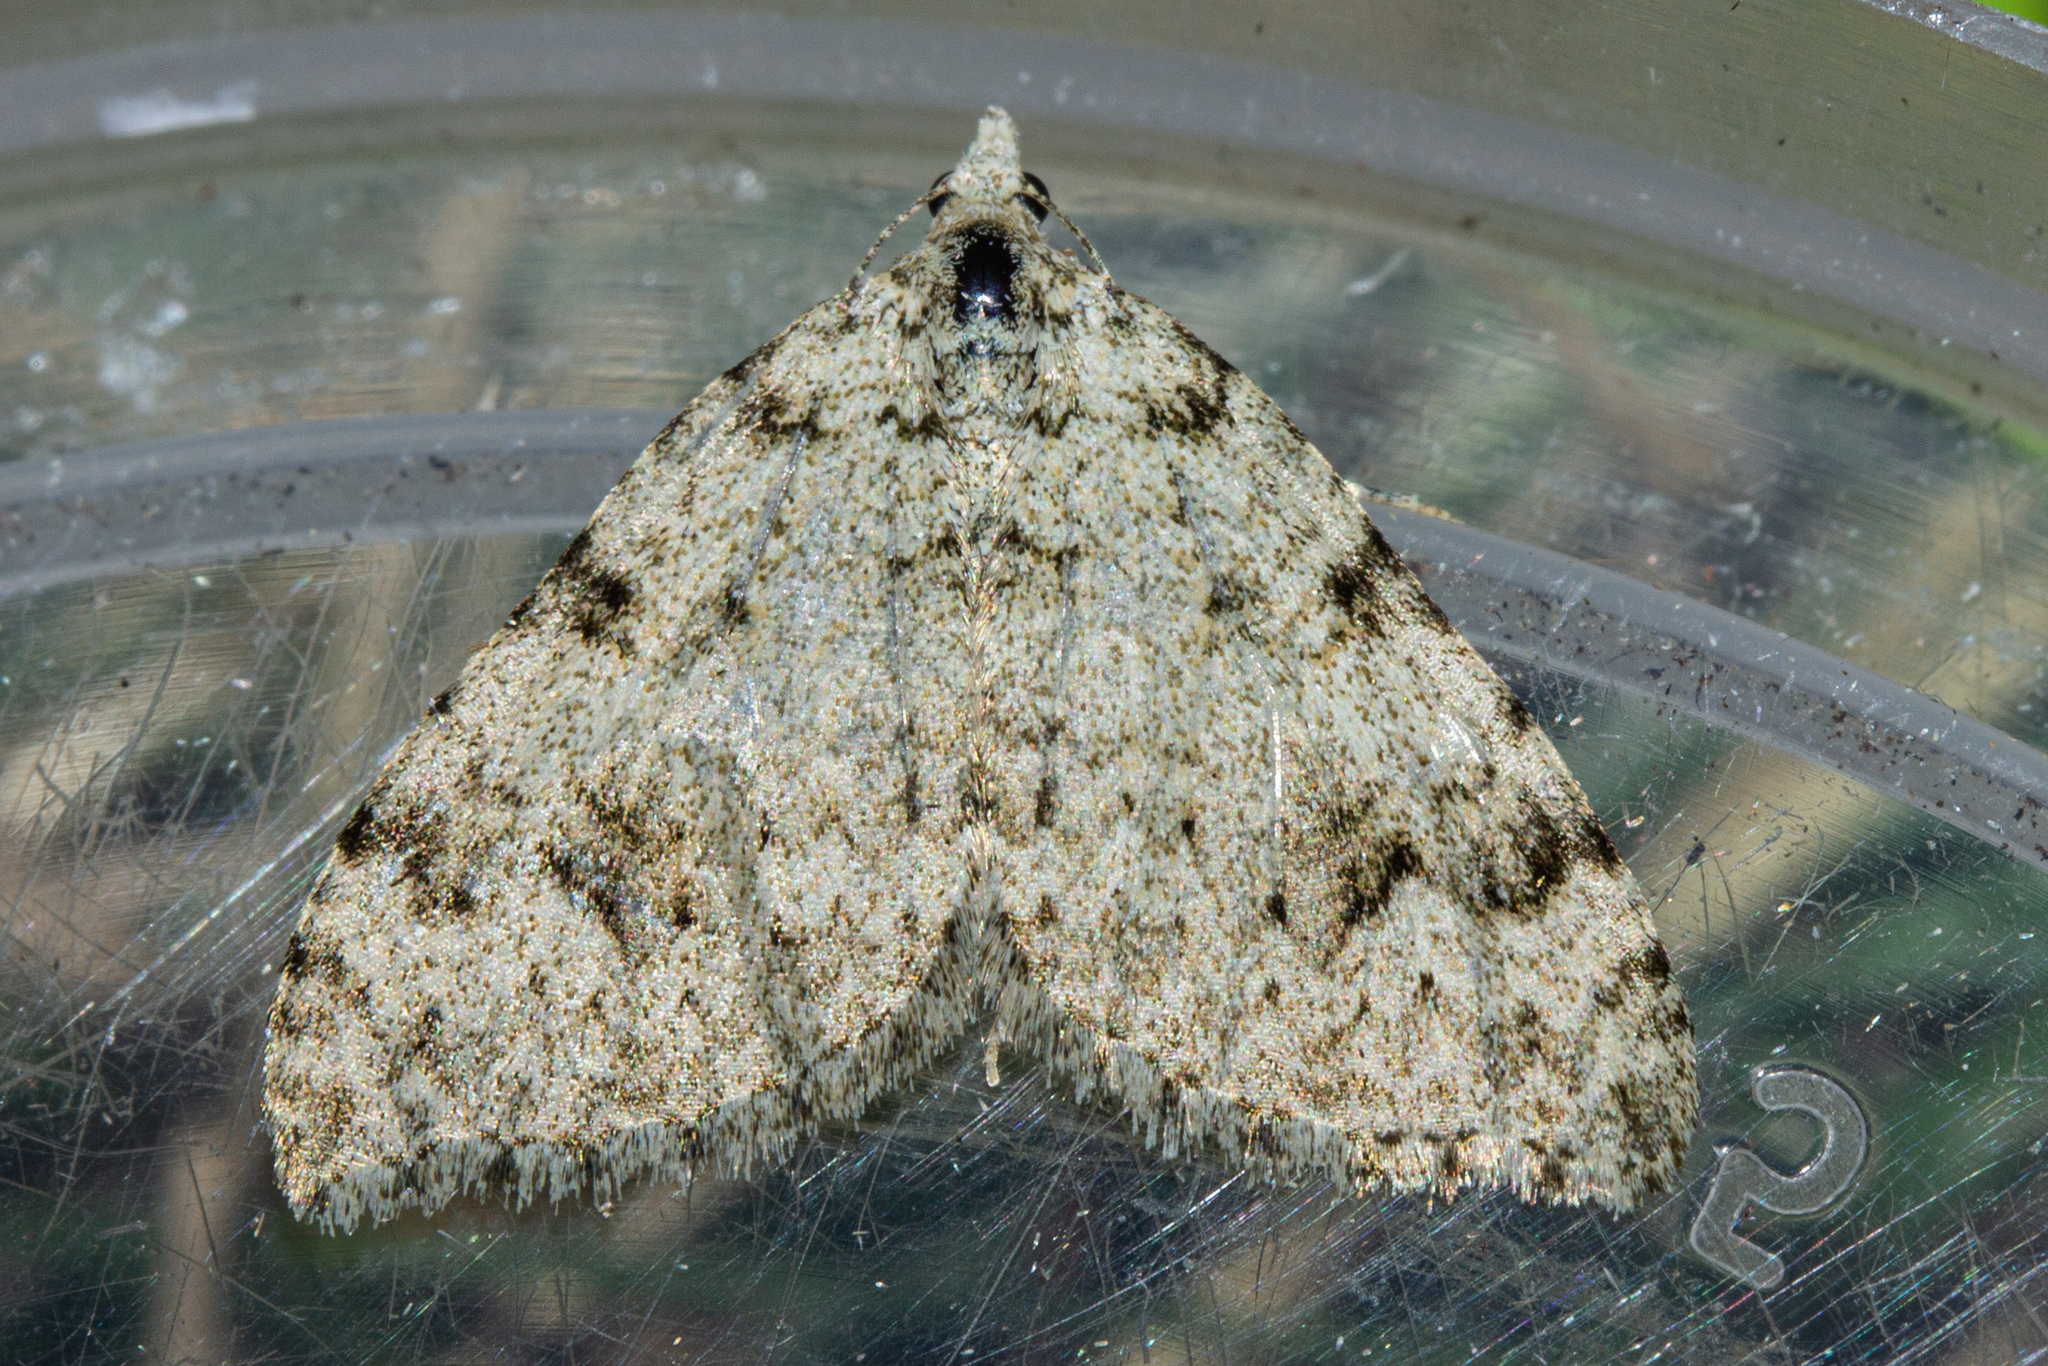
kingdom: Animalia
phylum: Arthropoda
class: Insecta
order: Lepidoptera
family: Geometridae
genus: Helastia
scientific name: Helastia cinerearia
